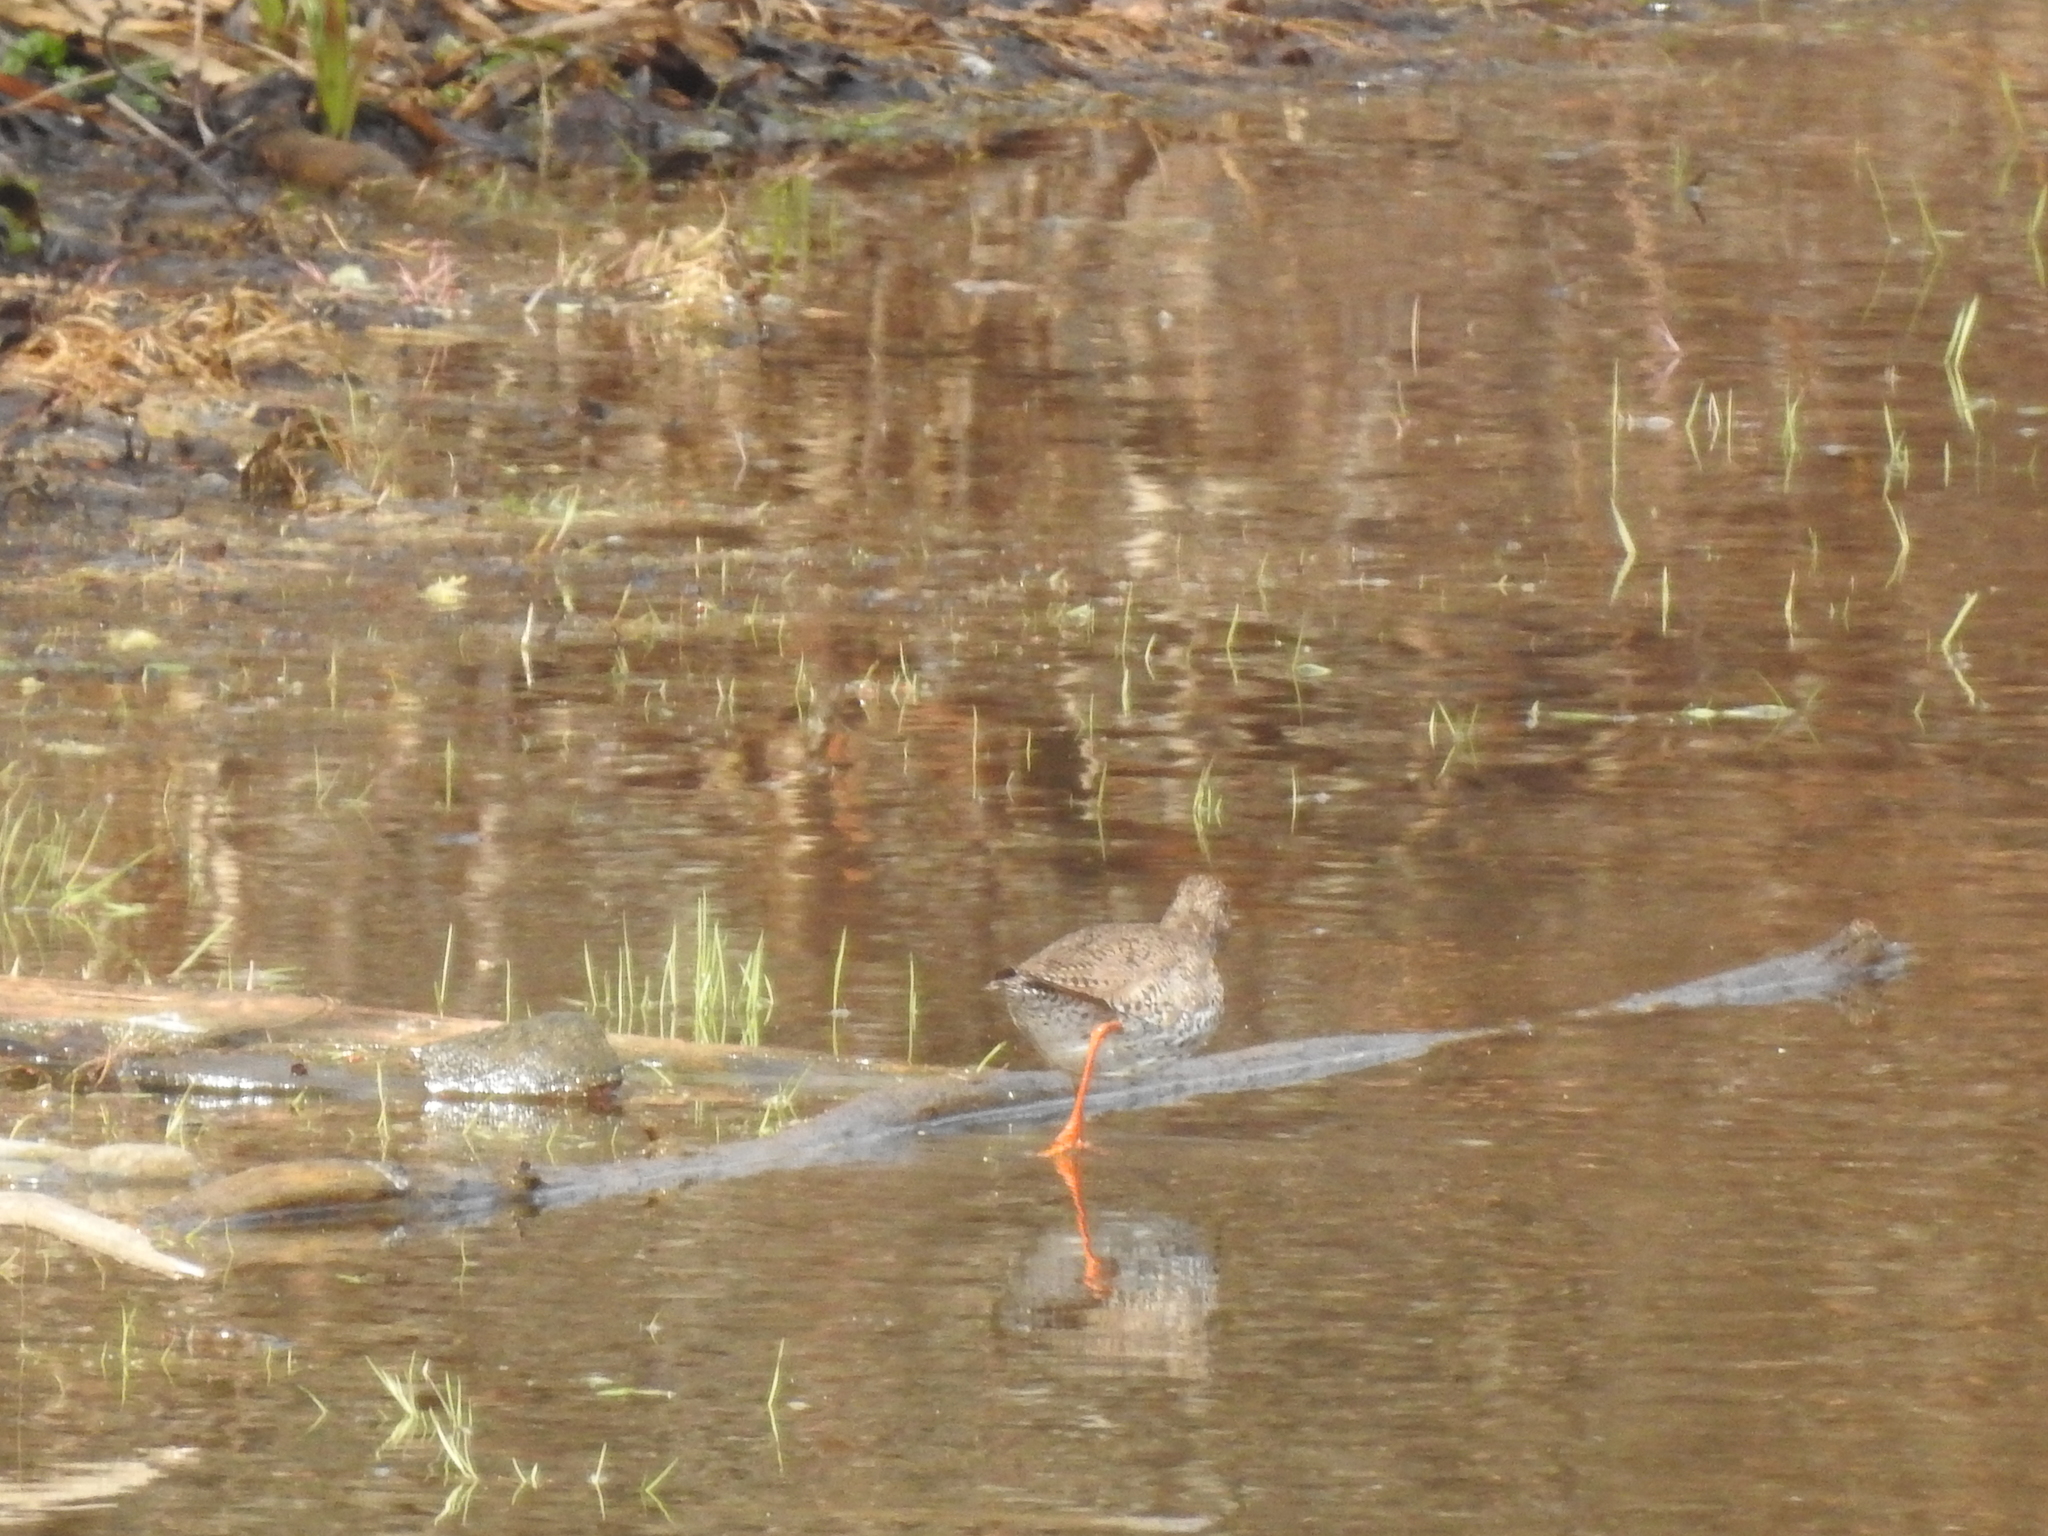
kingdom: Animalia
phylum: Chordata
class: Aves
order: Charadriiformes
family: Scolopacidae
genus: Tringa
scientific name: Tringa totanus
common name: Common redshank
